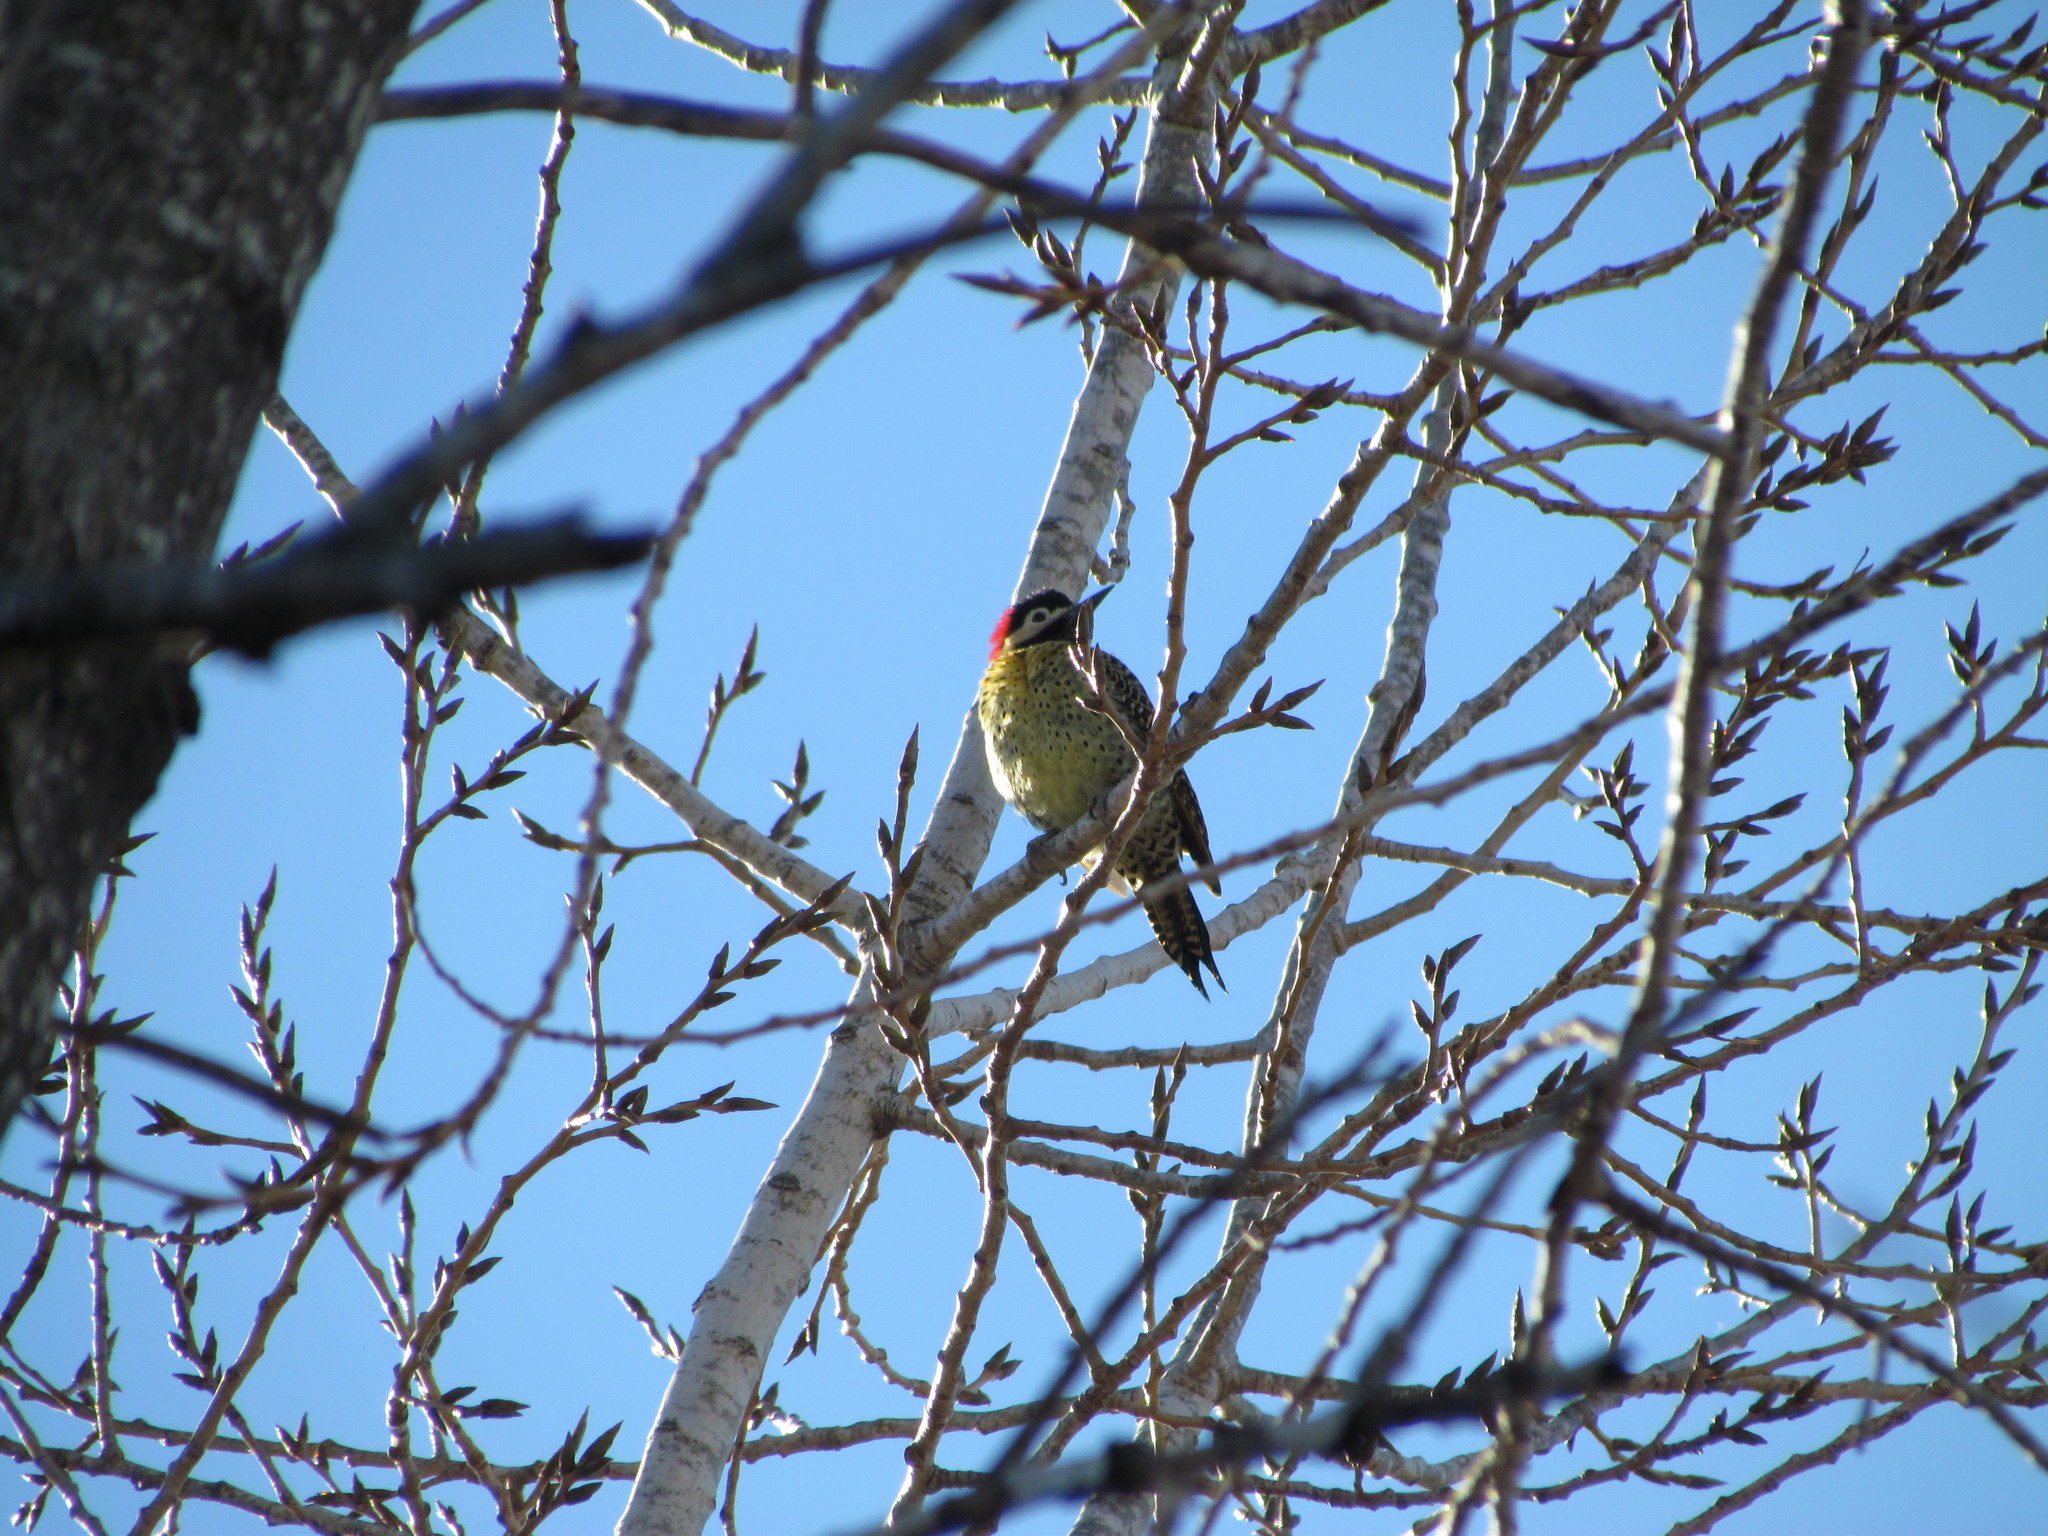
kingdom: Animalia
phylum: Chordata
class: Aves
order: Piciformes
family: Picidae
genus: Colaptes
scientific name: Colaptes melanochloros
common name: Green-barred woodpecker
